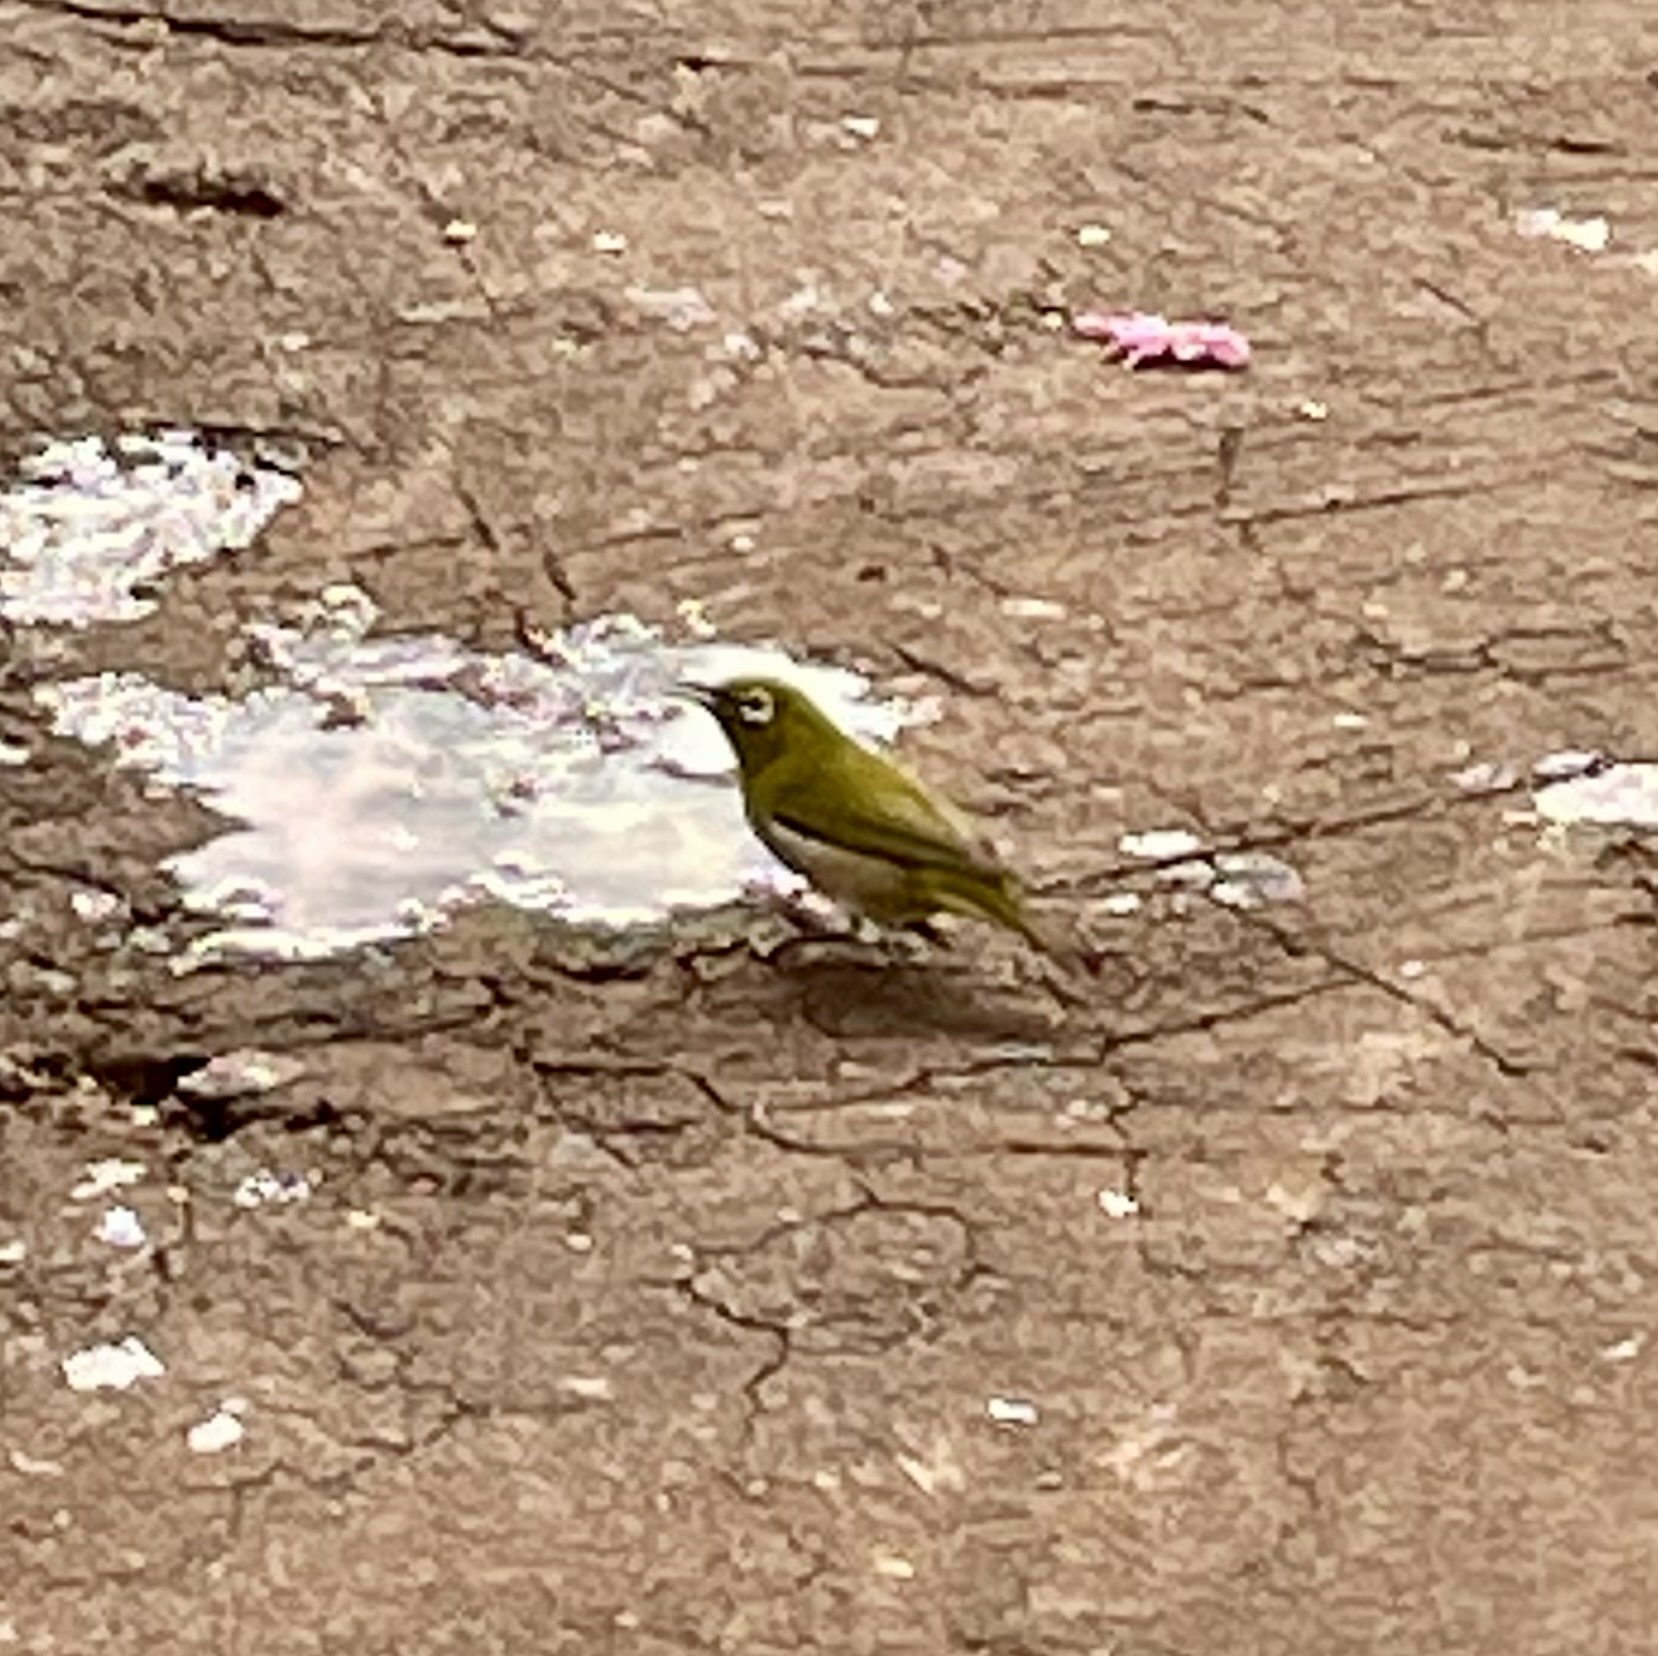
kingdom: Animalia
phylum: Chordata
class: Aves
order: Passeriformes
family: Zosteropidae
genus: Zosterops
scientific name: Zosterops japonicus
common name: Japanese white-eye
